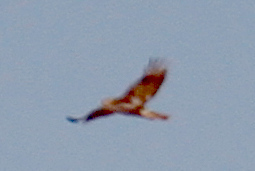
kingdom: Animalia
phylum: Chordata
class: Aves
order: Accipitriformes
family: Accipitridae
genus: Buteo
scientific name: Buteo jamaicensis
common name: Red-tailed hawk
